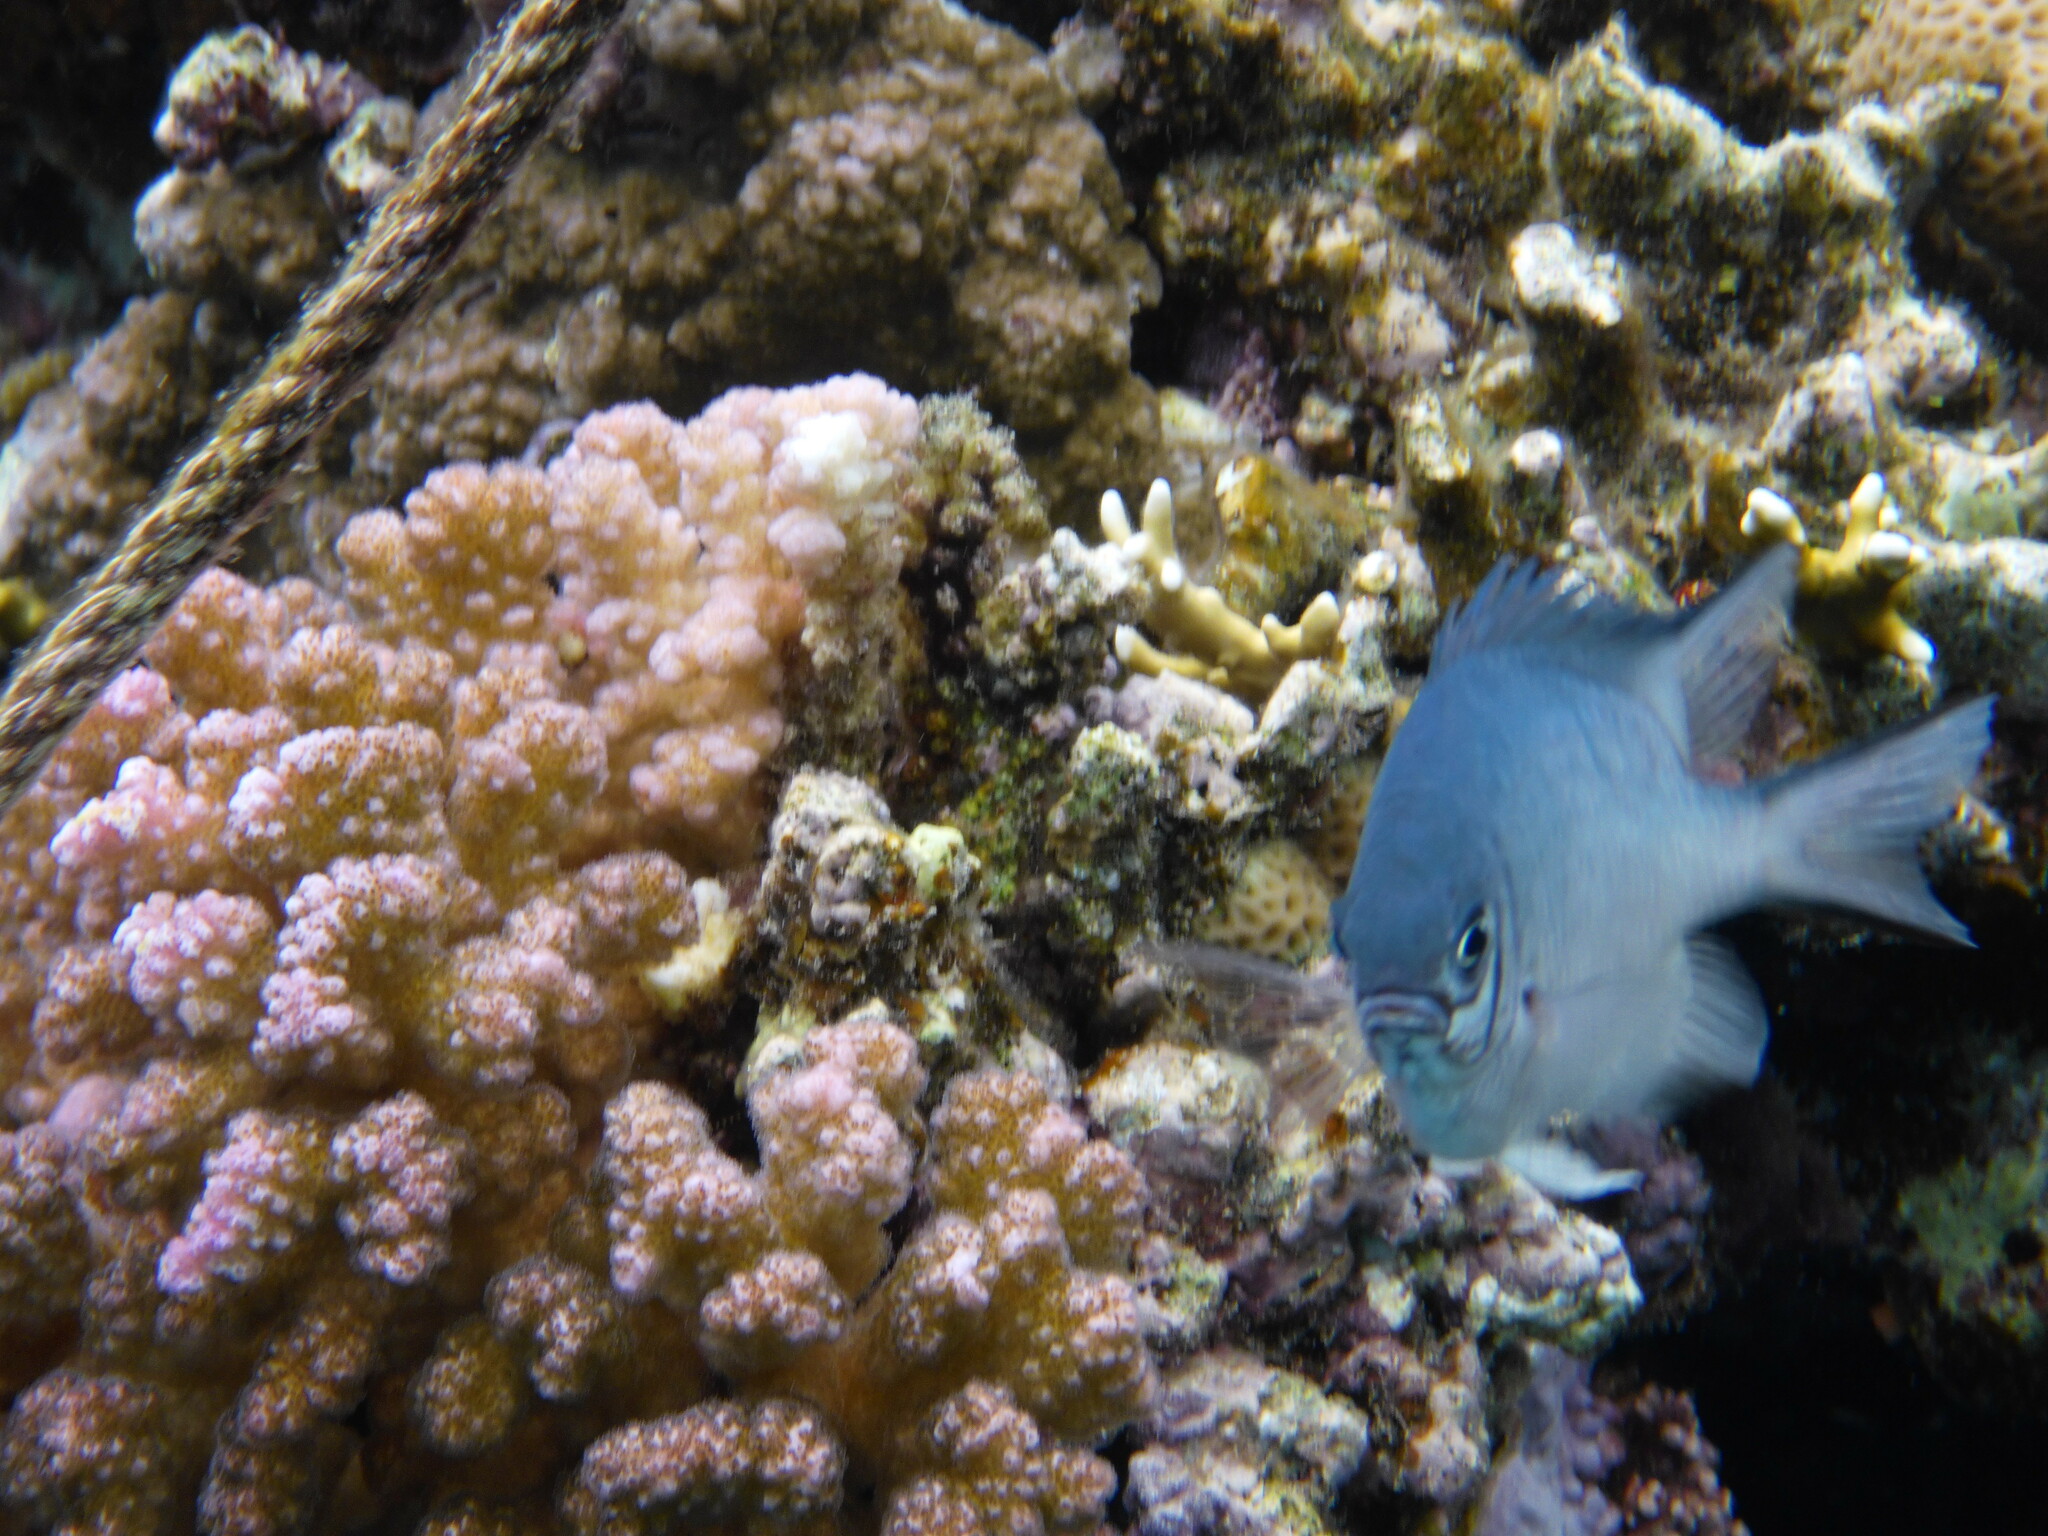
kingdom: Animalia
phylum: Chordata
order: Perciformes
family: Pomacentridae
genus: Amblyglyphidodon
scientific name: Amblyglyphidodon indicus
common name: Maldives damselfish
